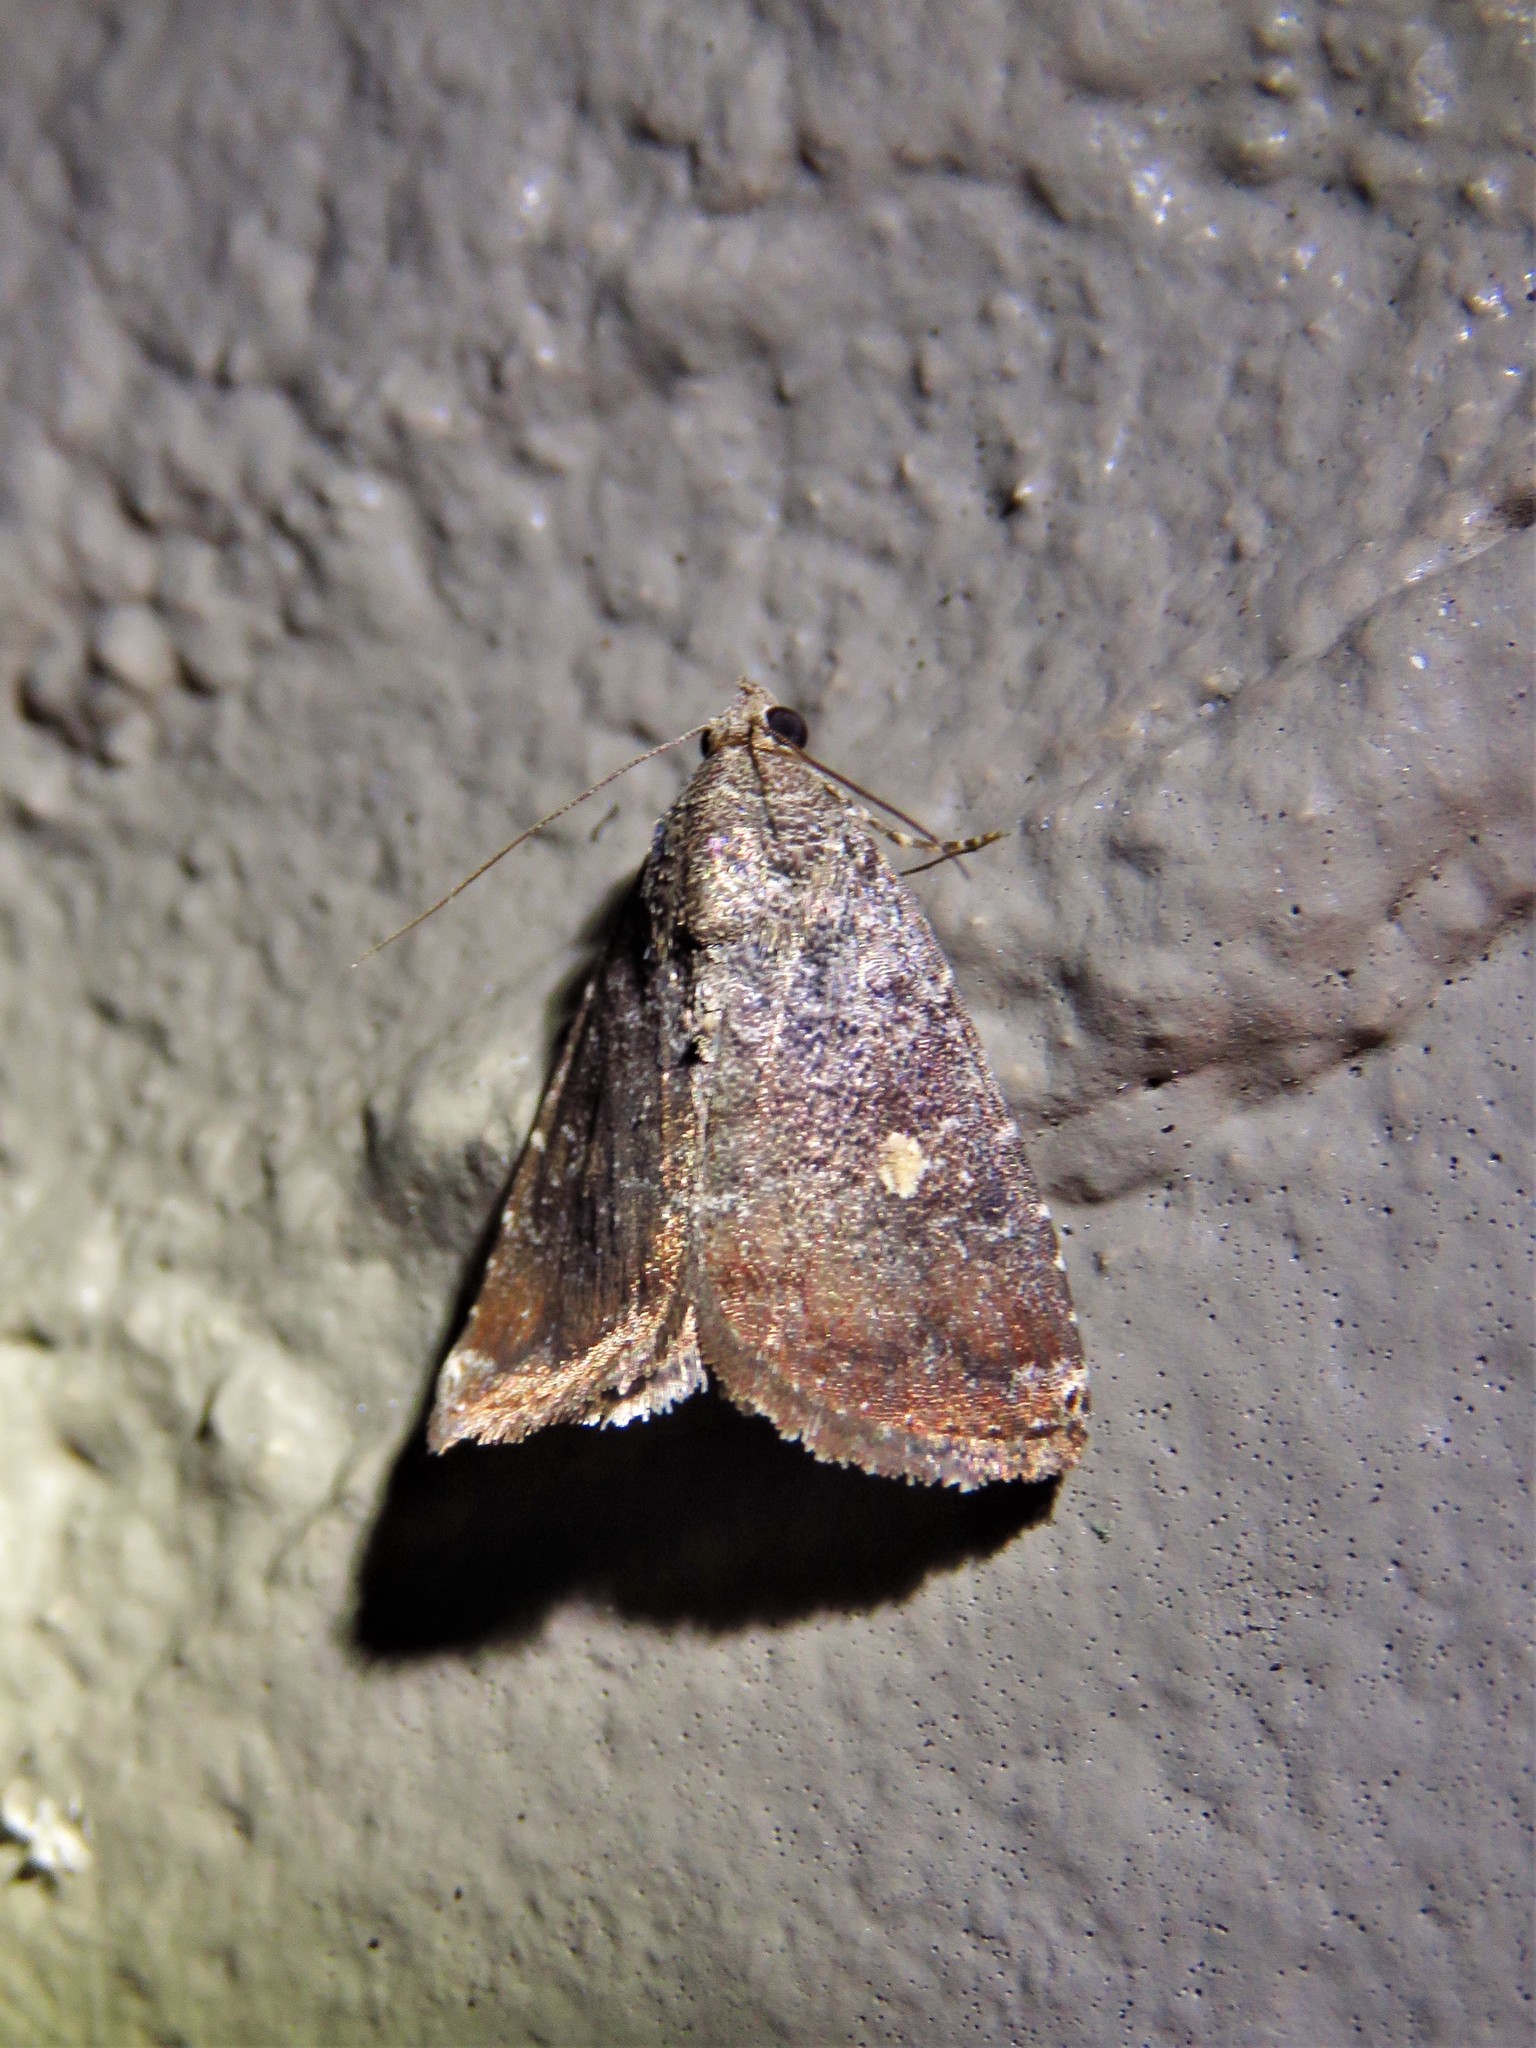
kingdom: Animalia
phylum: Arthropoda
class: Insecta
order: Lepidoptera
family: Noctuidae
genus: Amyna
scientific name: Amyna stricta
